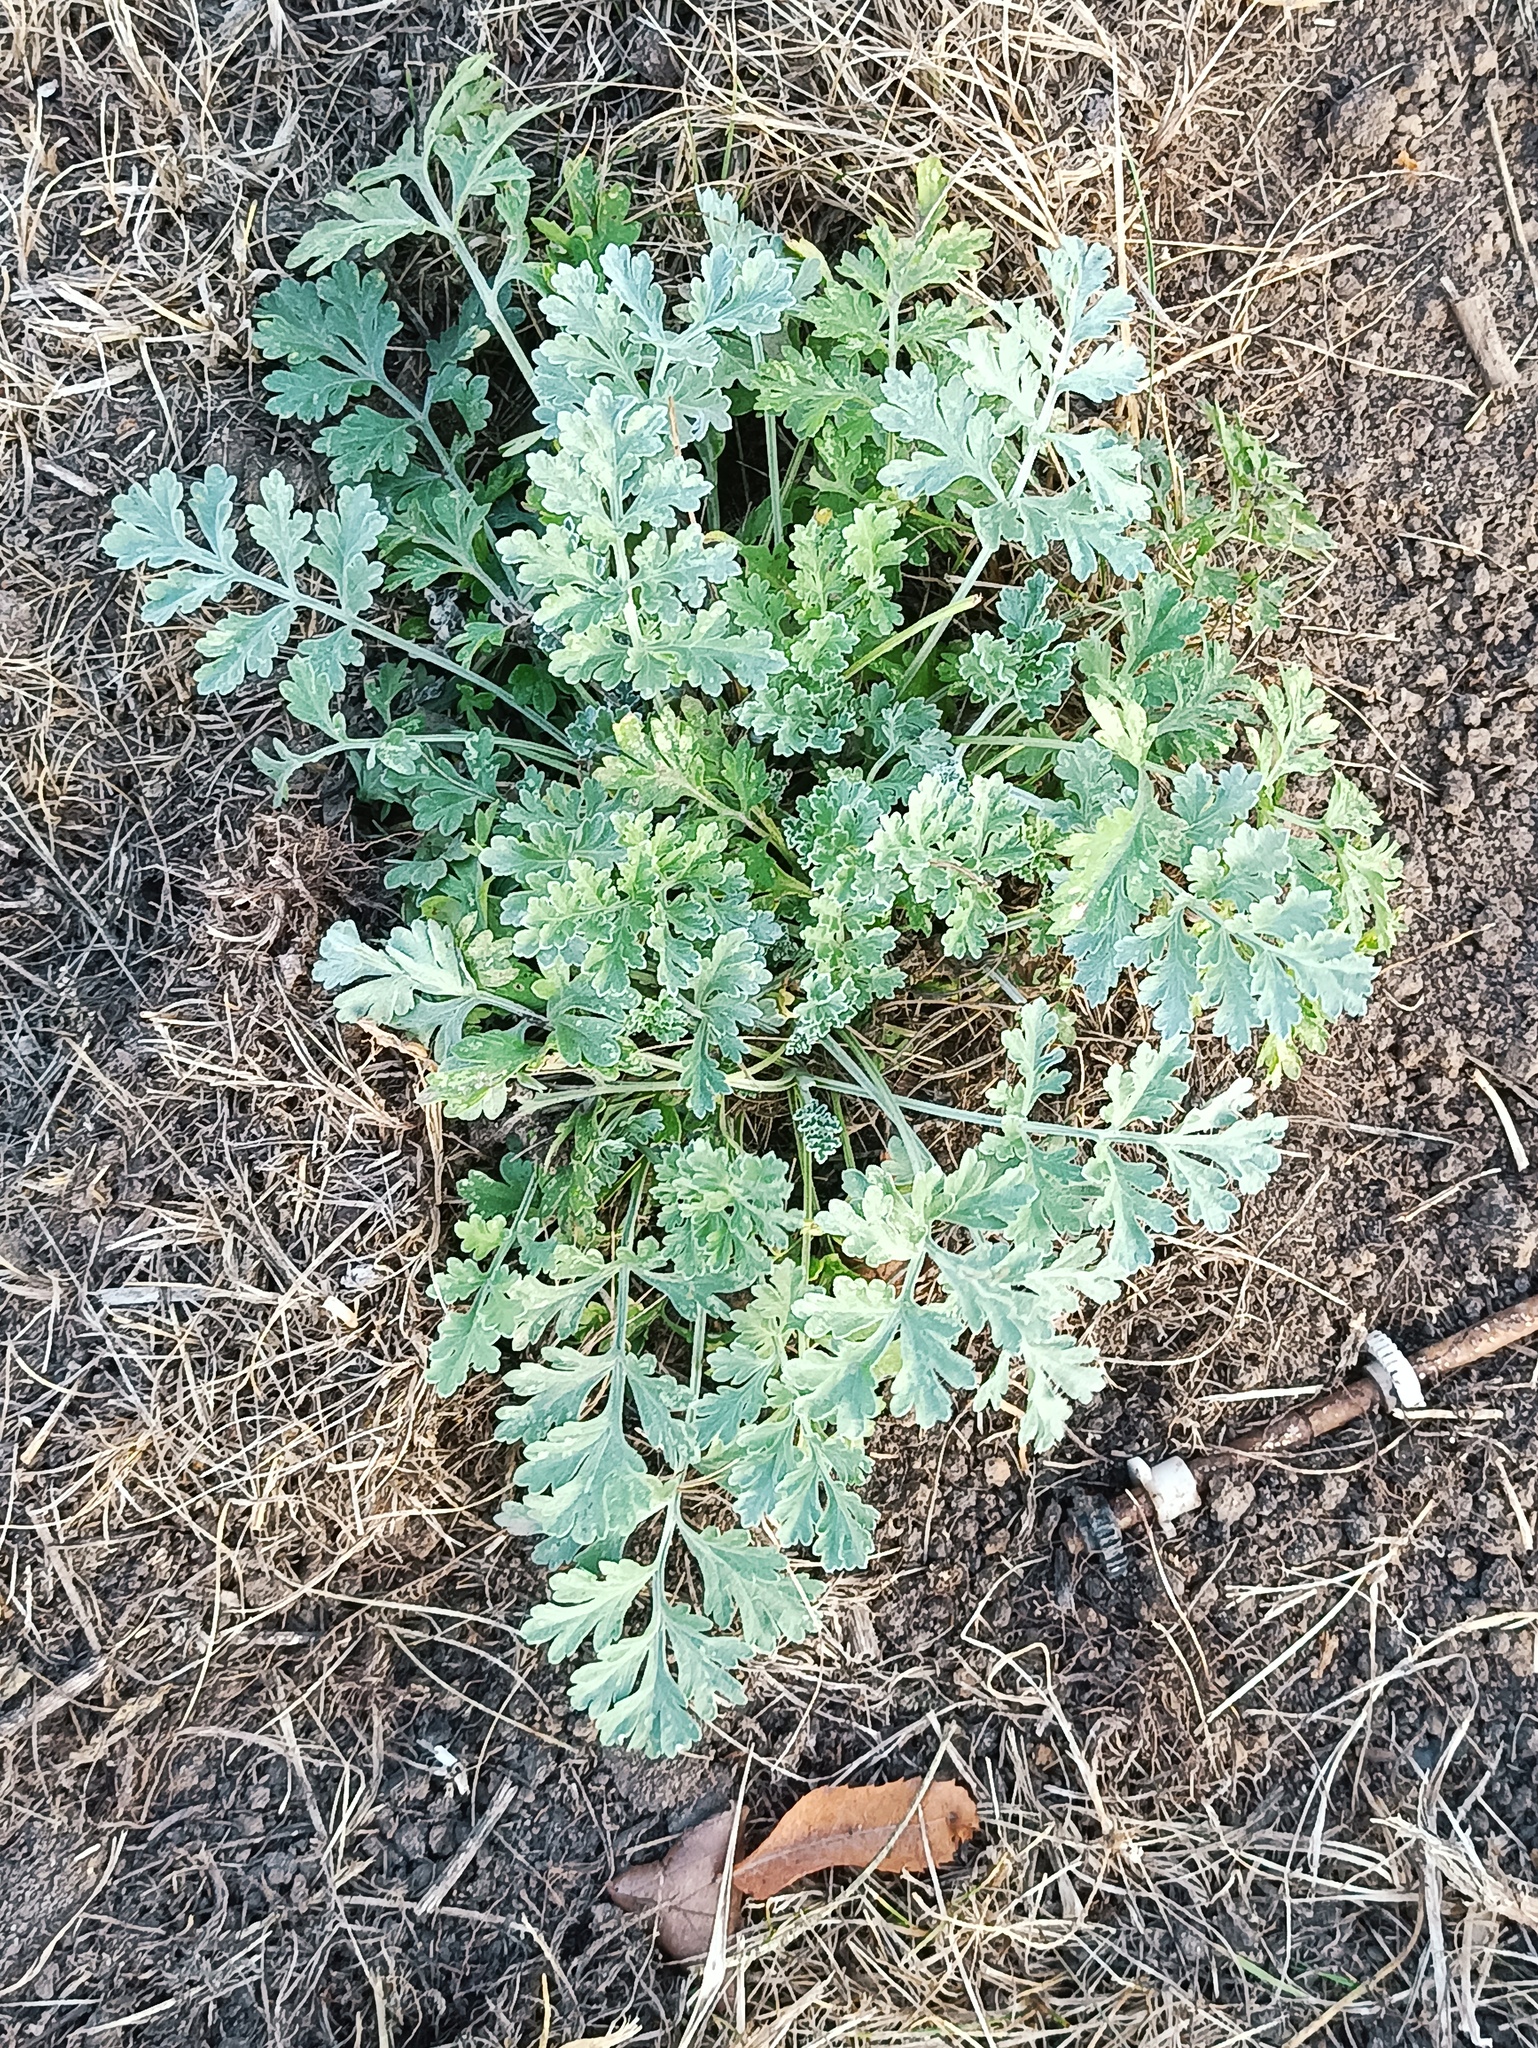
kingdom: Plantae
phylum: Tracheophyta
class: Magnoliopsida
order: Asterales
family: Asteraceae
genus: Artemisia
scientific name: Artemisia absinthium
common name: Wormwood
